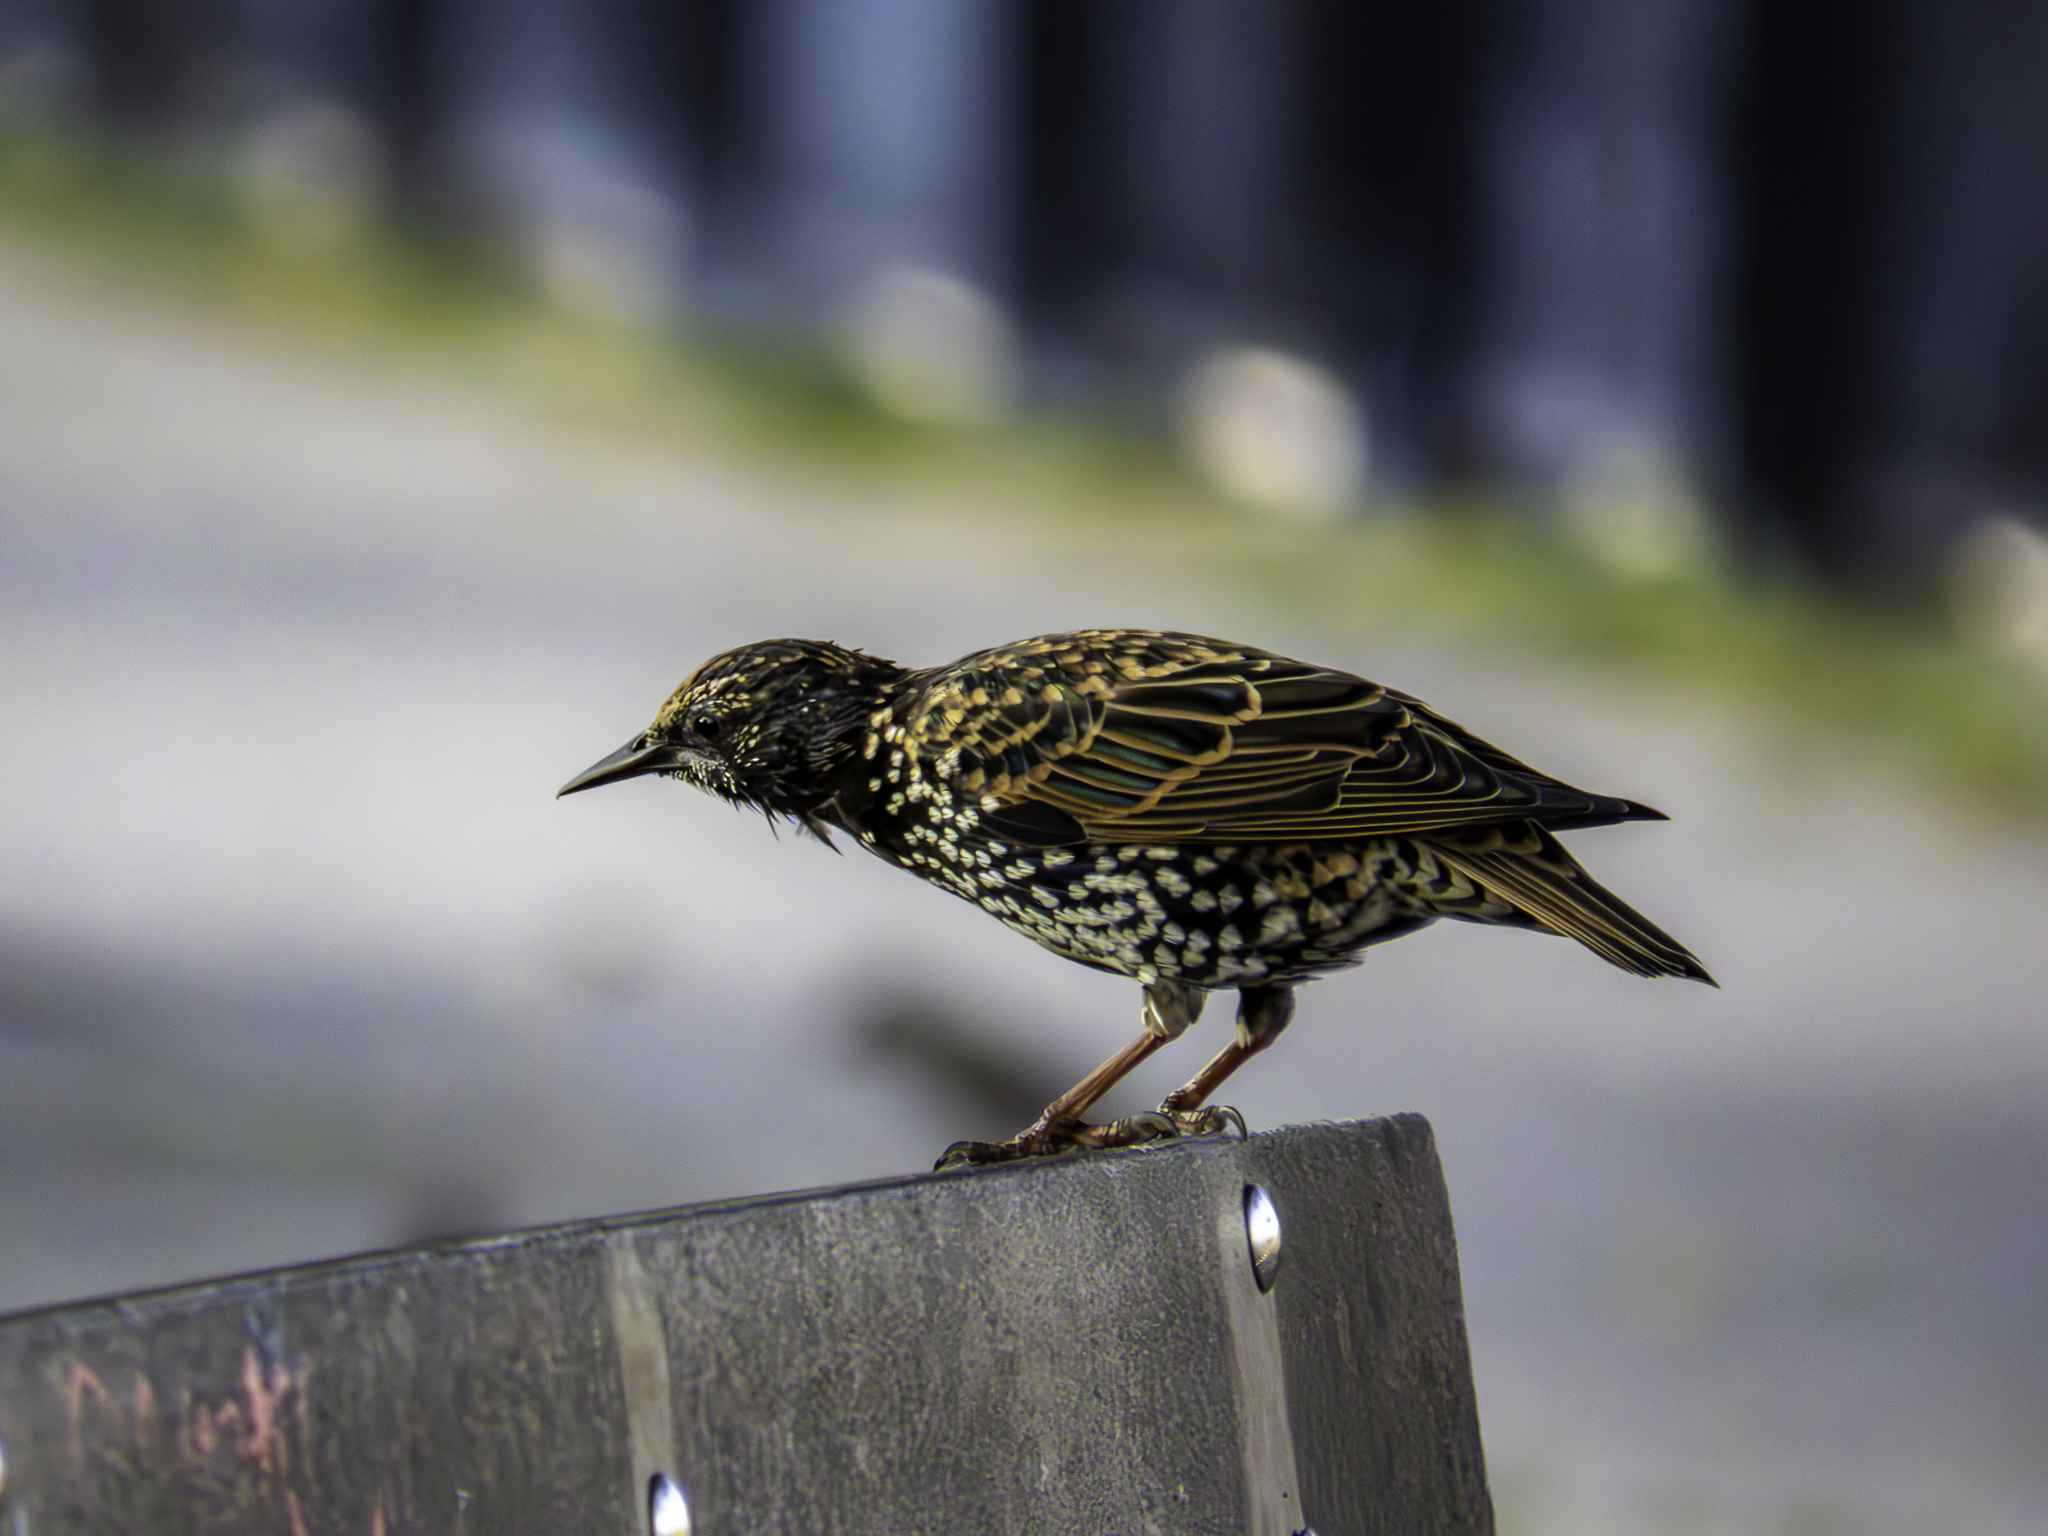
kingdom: Animalia
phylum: Chordata
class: Aves
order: Passeriformes
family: Sturnidae
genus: Sturnus
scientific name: Sturnus vulgaris
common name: Common starling
